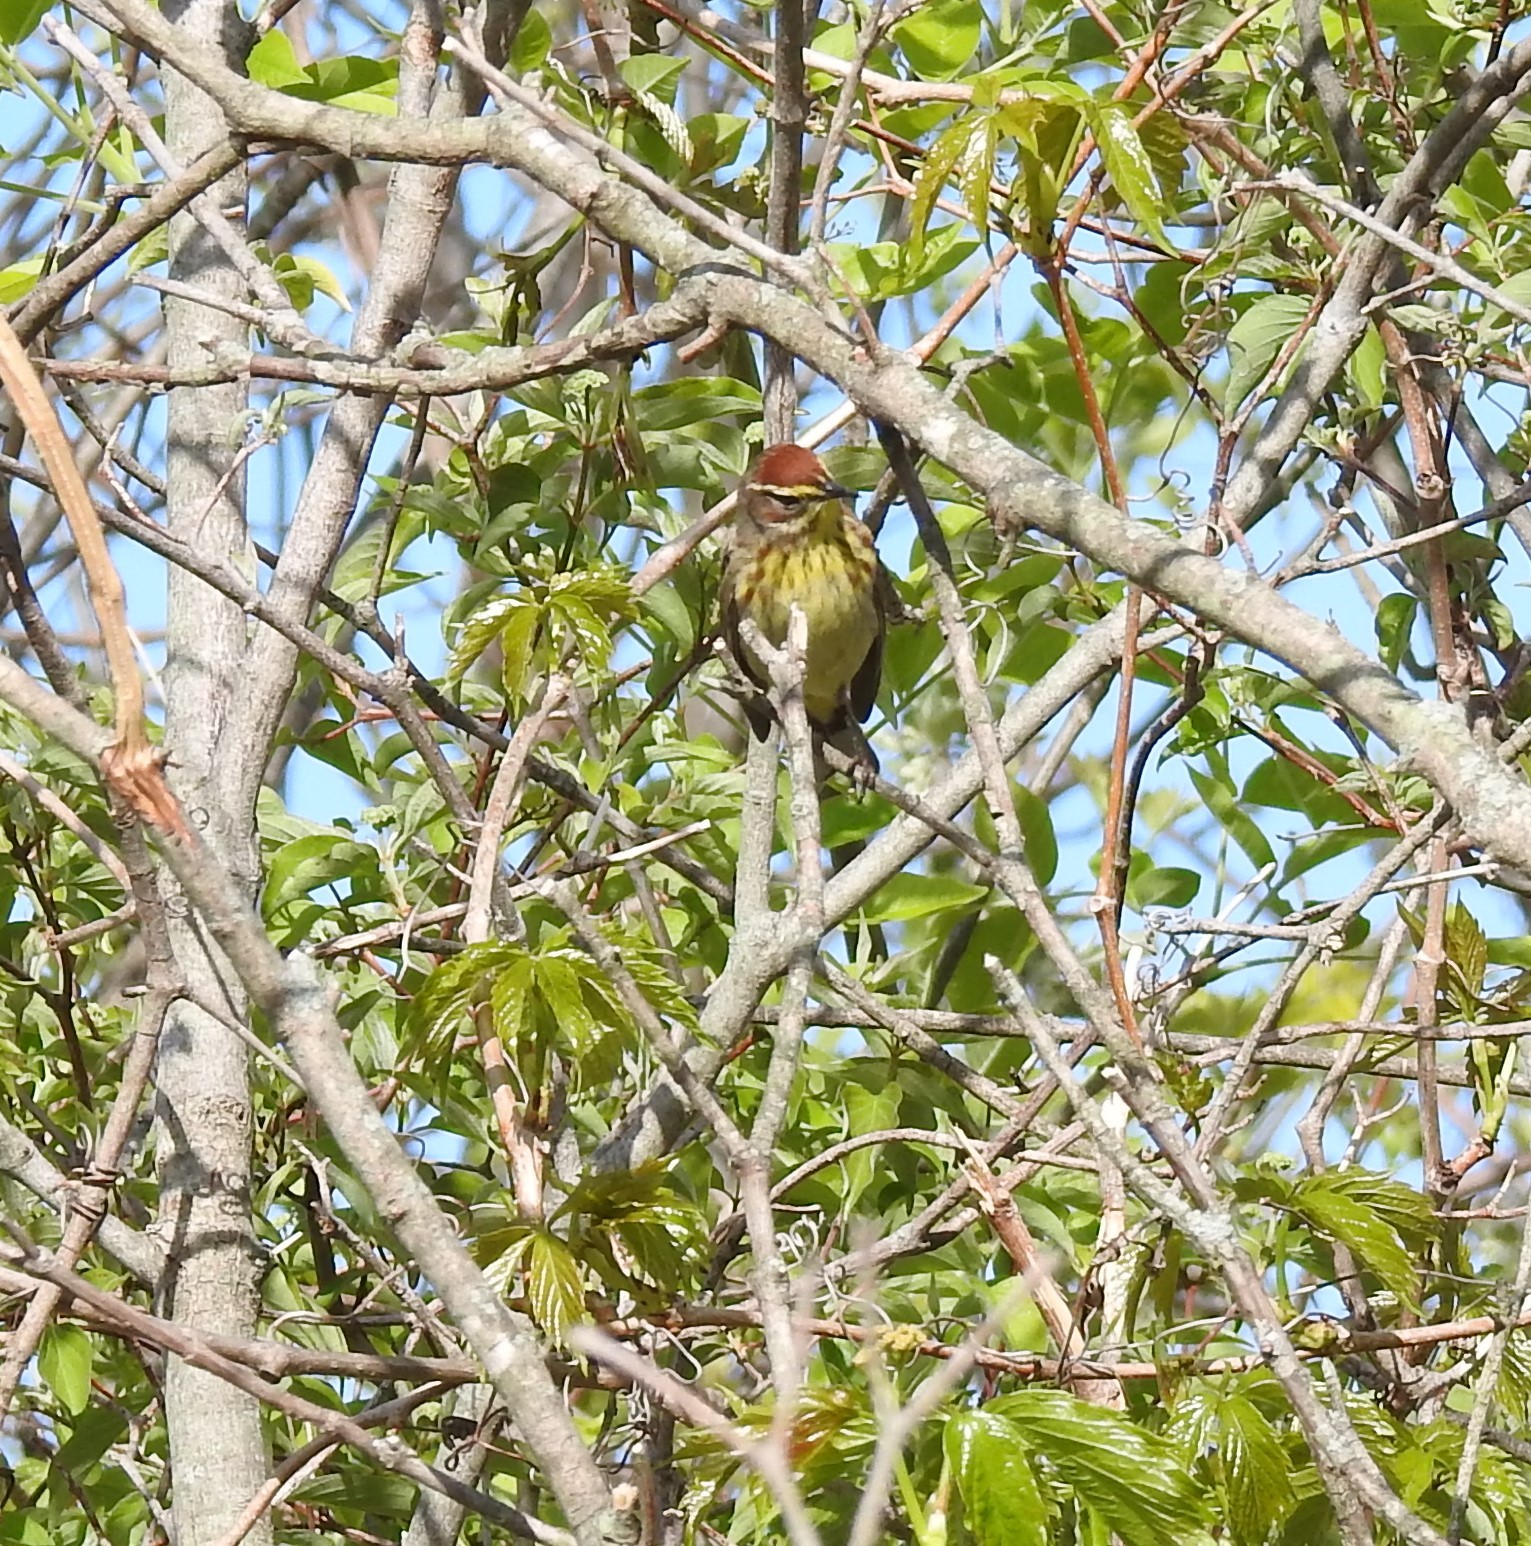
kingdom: Animalia
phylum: Chordata
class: Aves
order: Passeriformes
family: Parulidae
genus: Setophaga
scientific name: Setophaga palmarum
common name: Palm warbler
